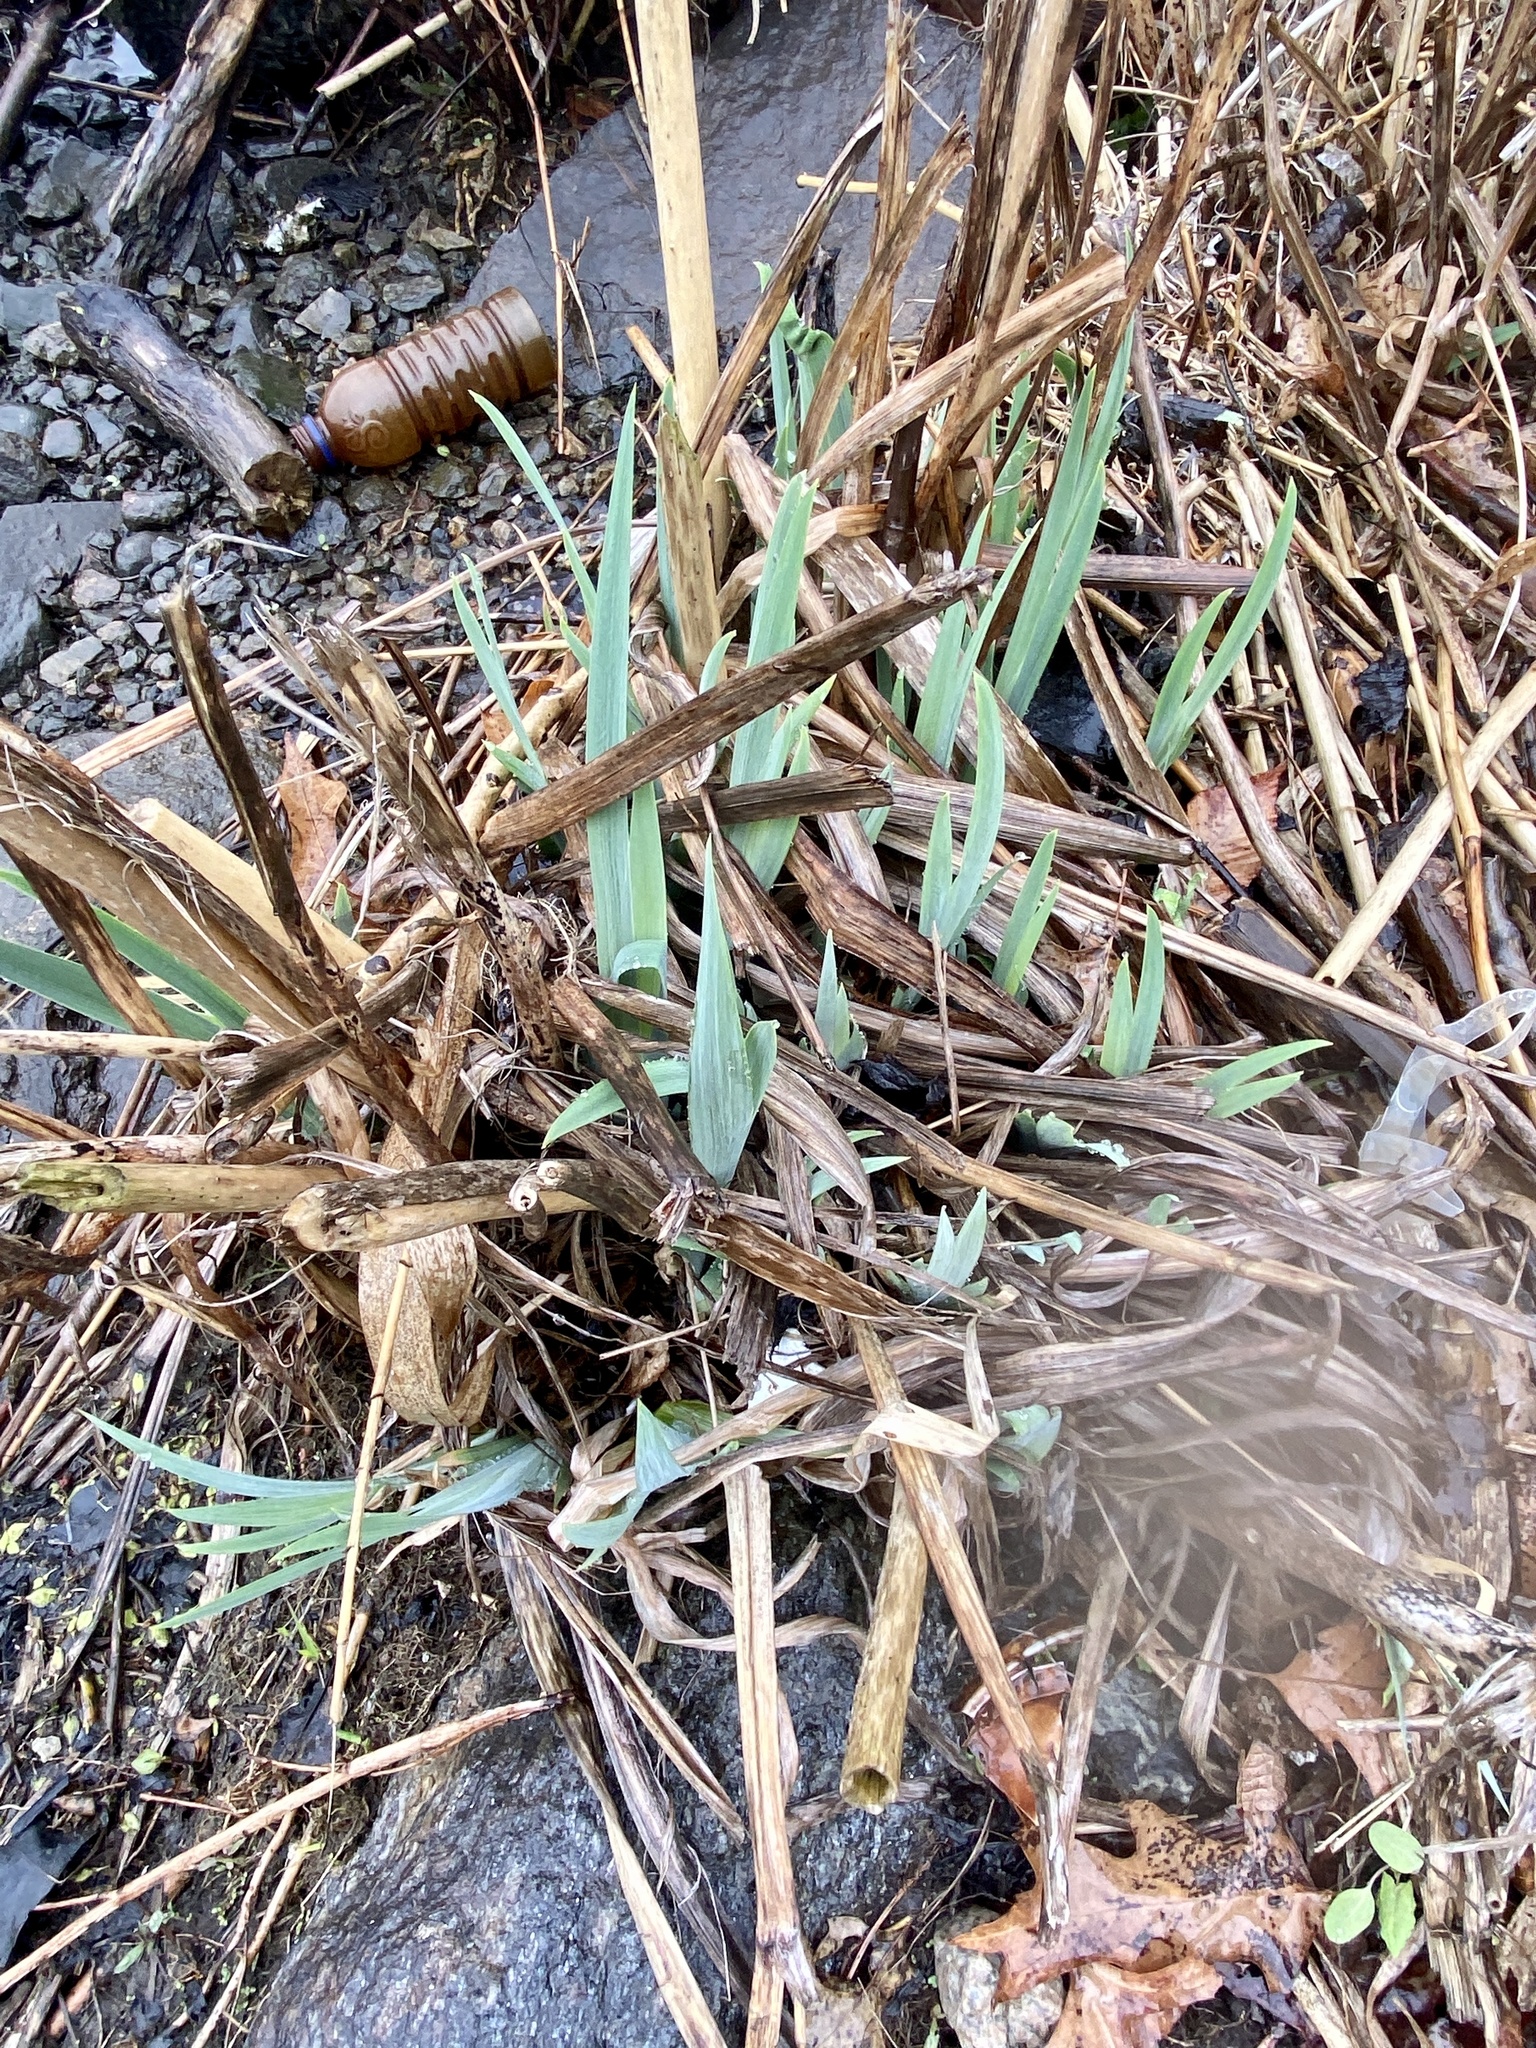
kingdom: Plantae
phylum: Tracheophyta
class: Liliopsida
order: Asparagales
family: Iridaceae
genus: Iris
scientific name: Iris pseudacorus
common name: Yellow flag
